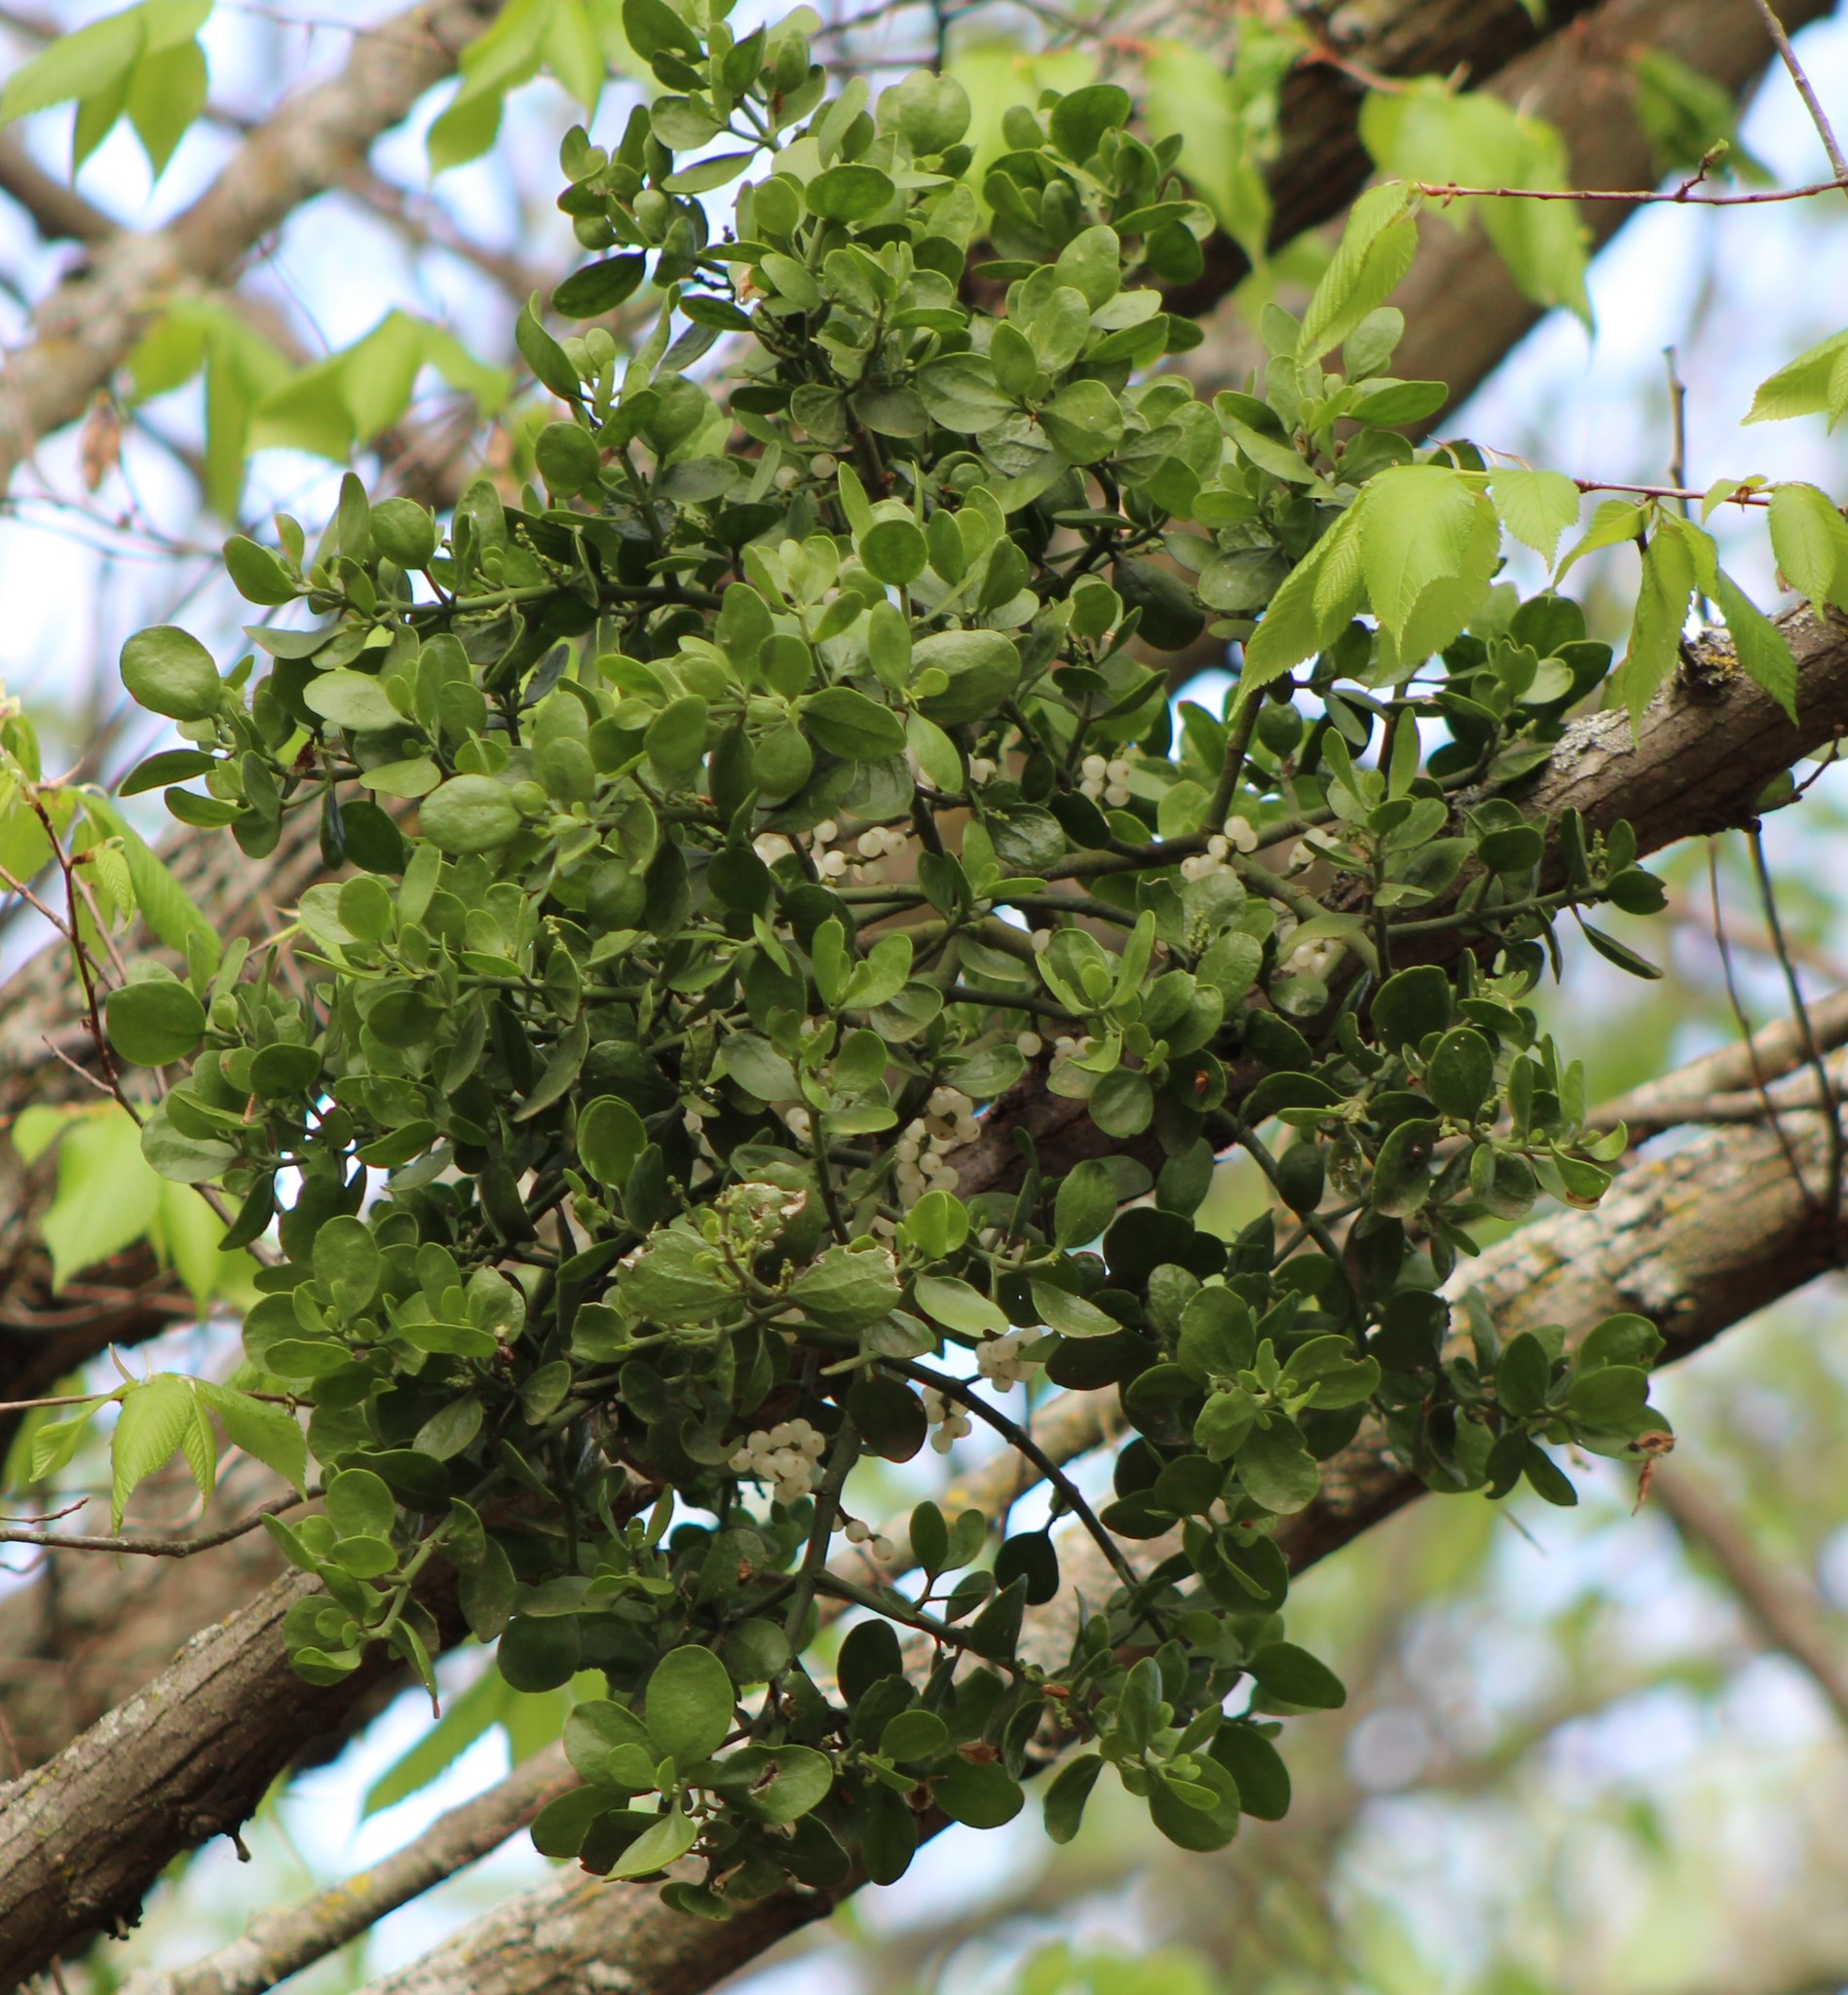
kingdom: Plantae
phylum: Tracheophyta
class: Magnoliopsida
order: Santalales
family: Viscaceae
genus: Phoradendron
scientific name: Phoradendron leucarpum
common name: Pacific mistletoe
